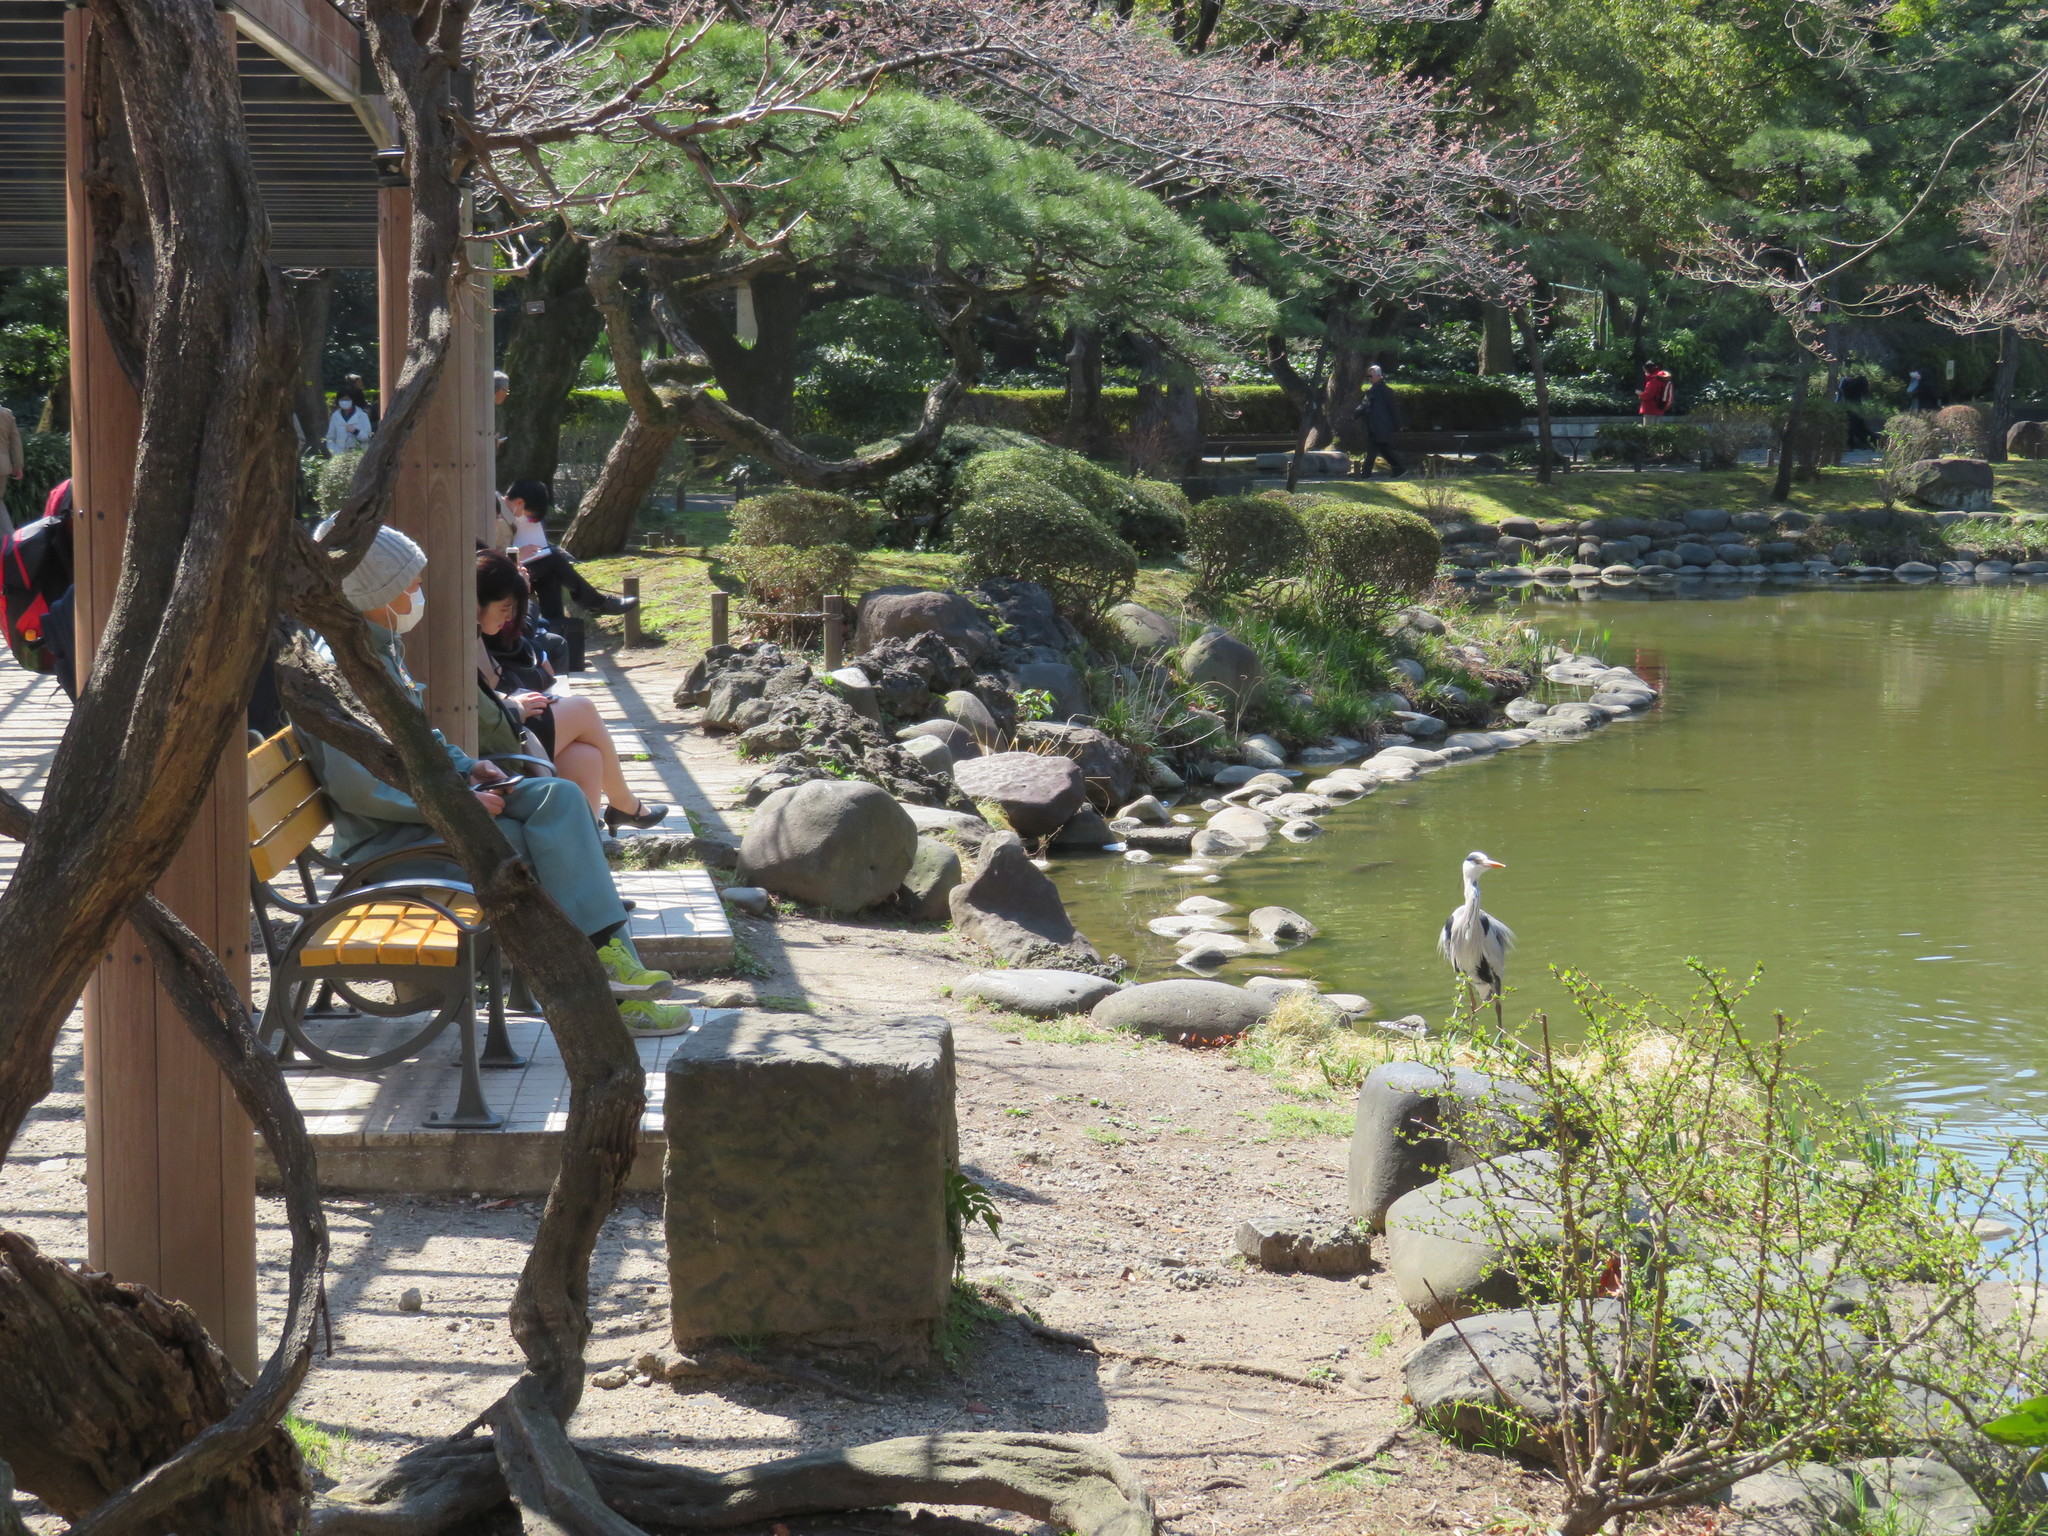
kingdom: Animalia
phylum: Chordata
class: Aves
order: Pelecaniformes
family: Ardeidae
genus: Ardea
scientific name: Ardea cinerea
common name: Grey heron
